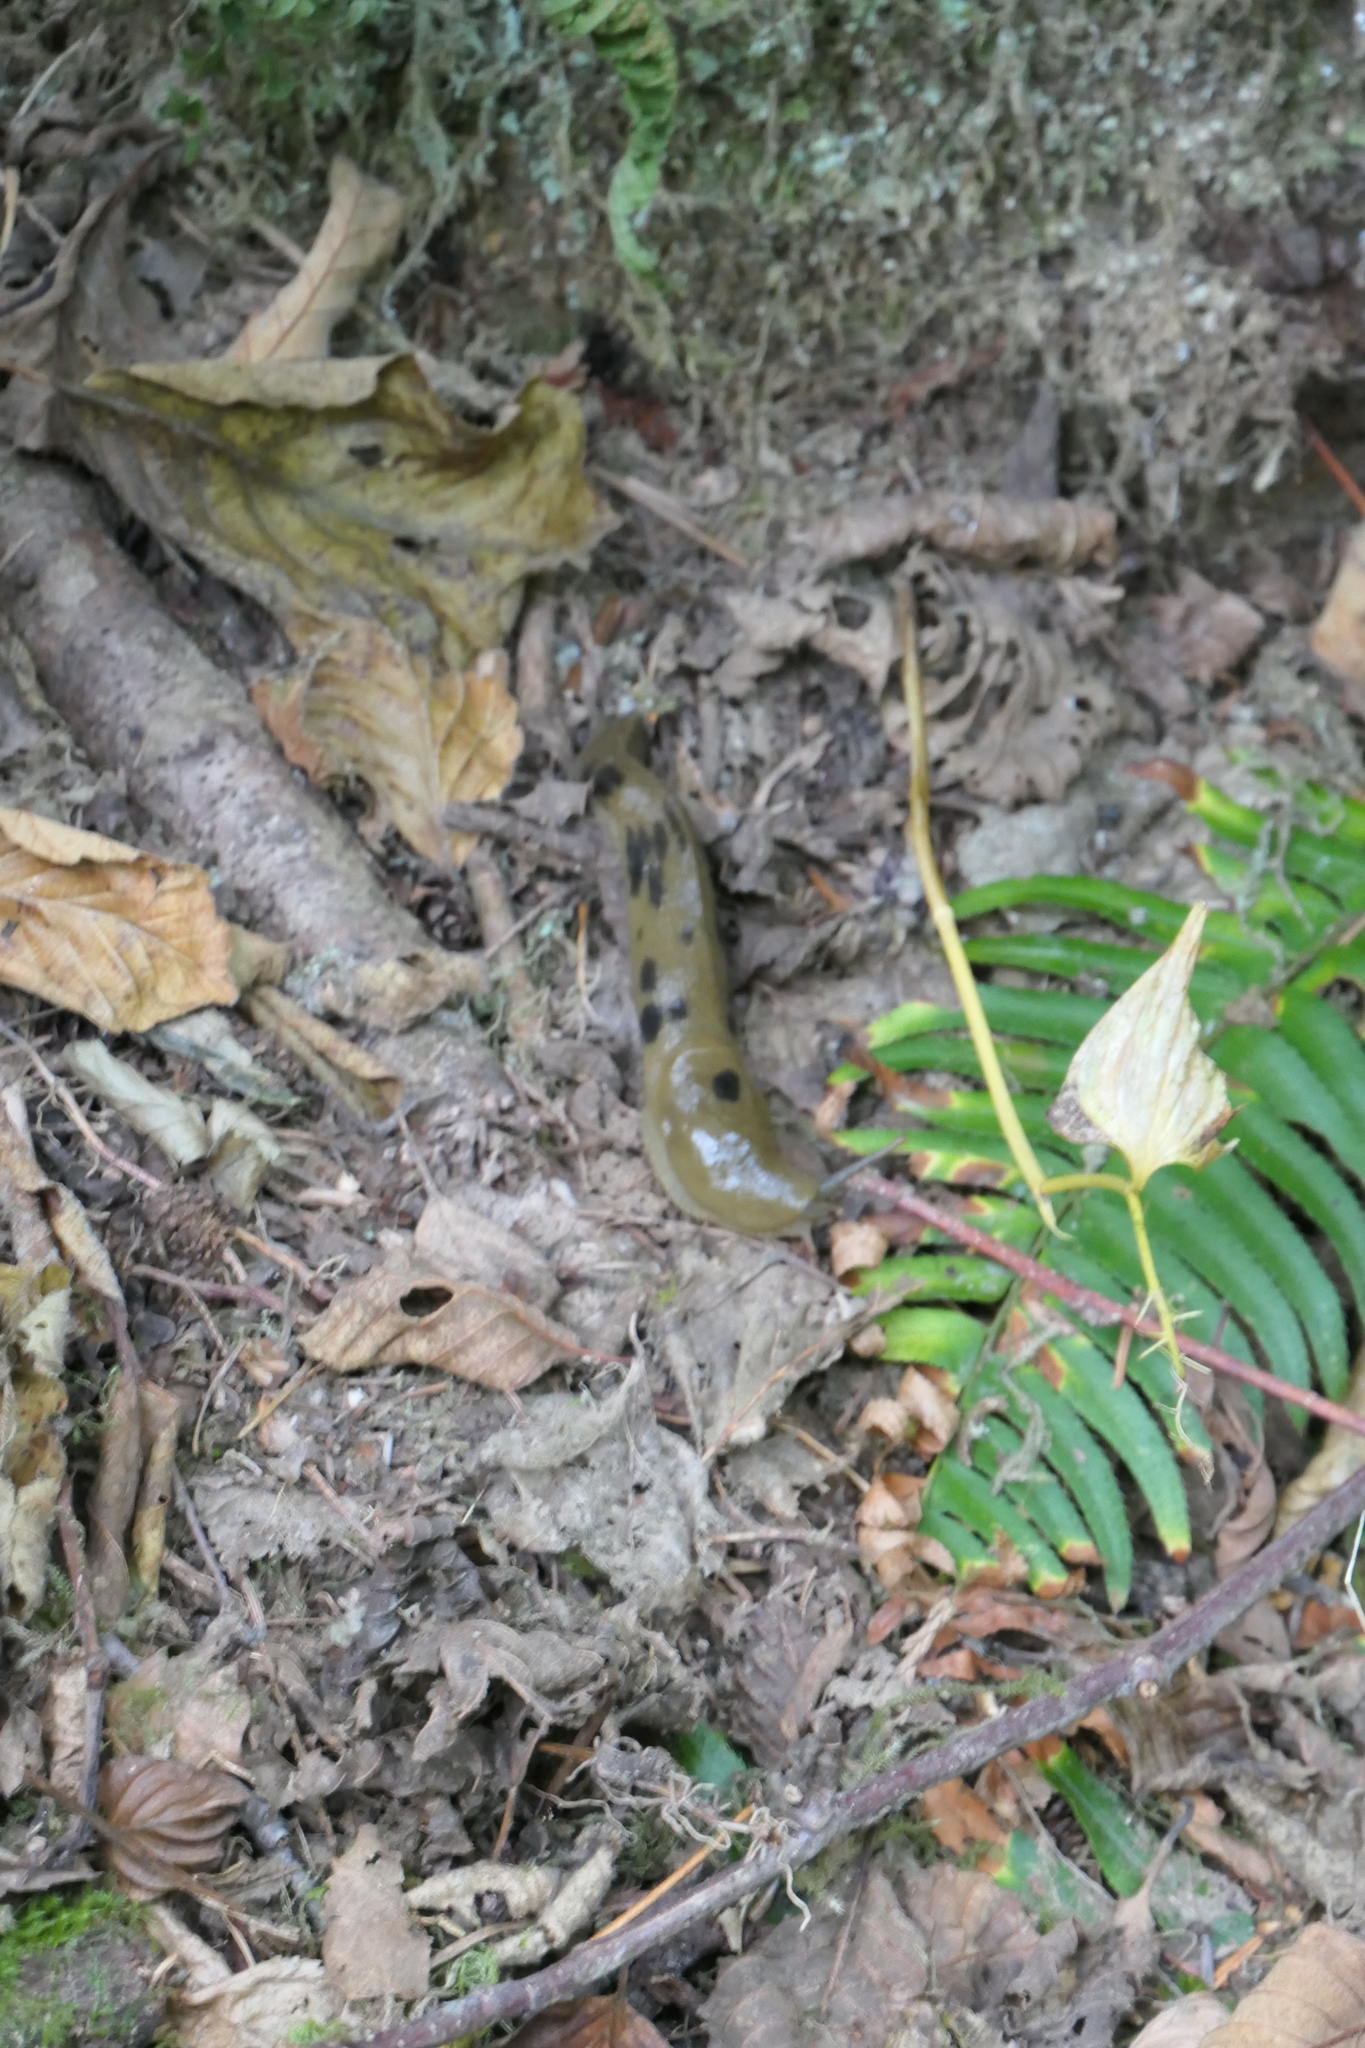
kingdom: Animalia
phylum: Mollusca
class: Gastropoda
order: Stylommatophora
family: Ariolimacidae
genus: Ariolimax
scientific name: Ariolimax columbianus
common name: Pacific banana slug
